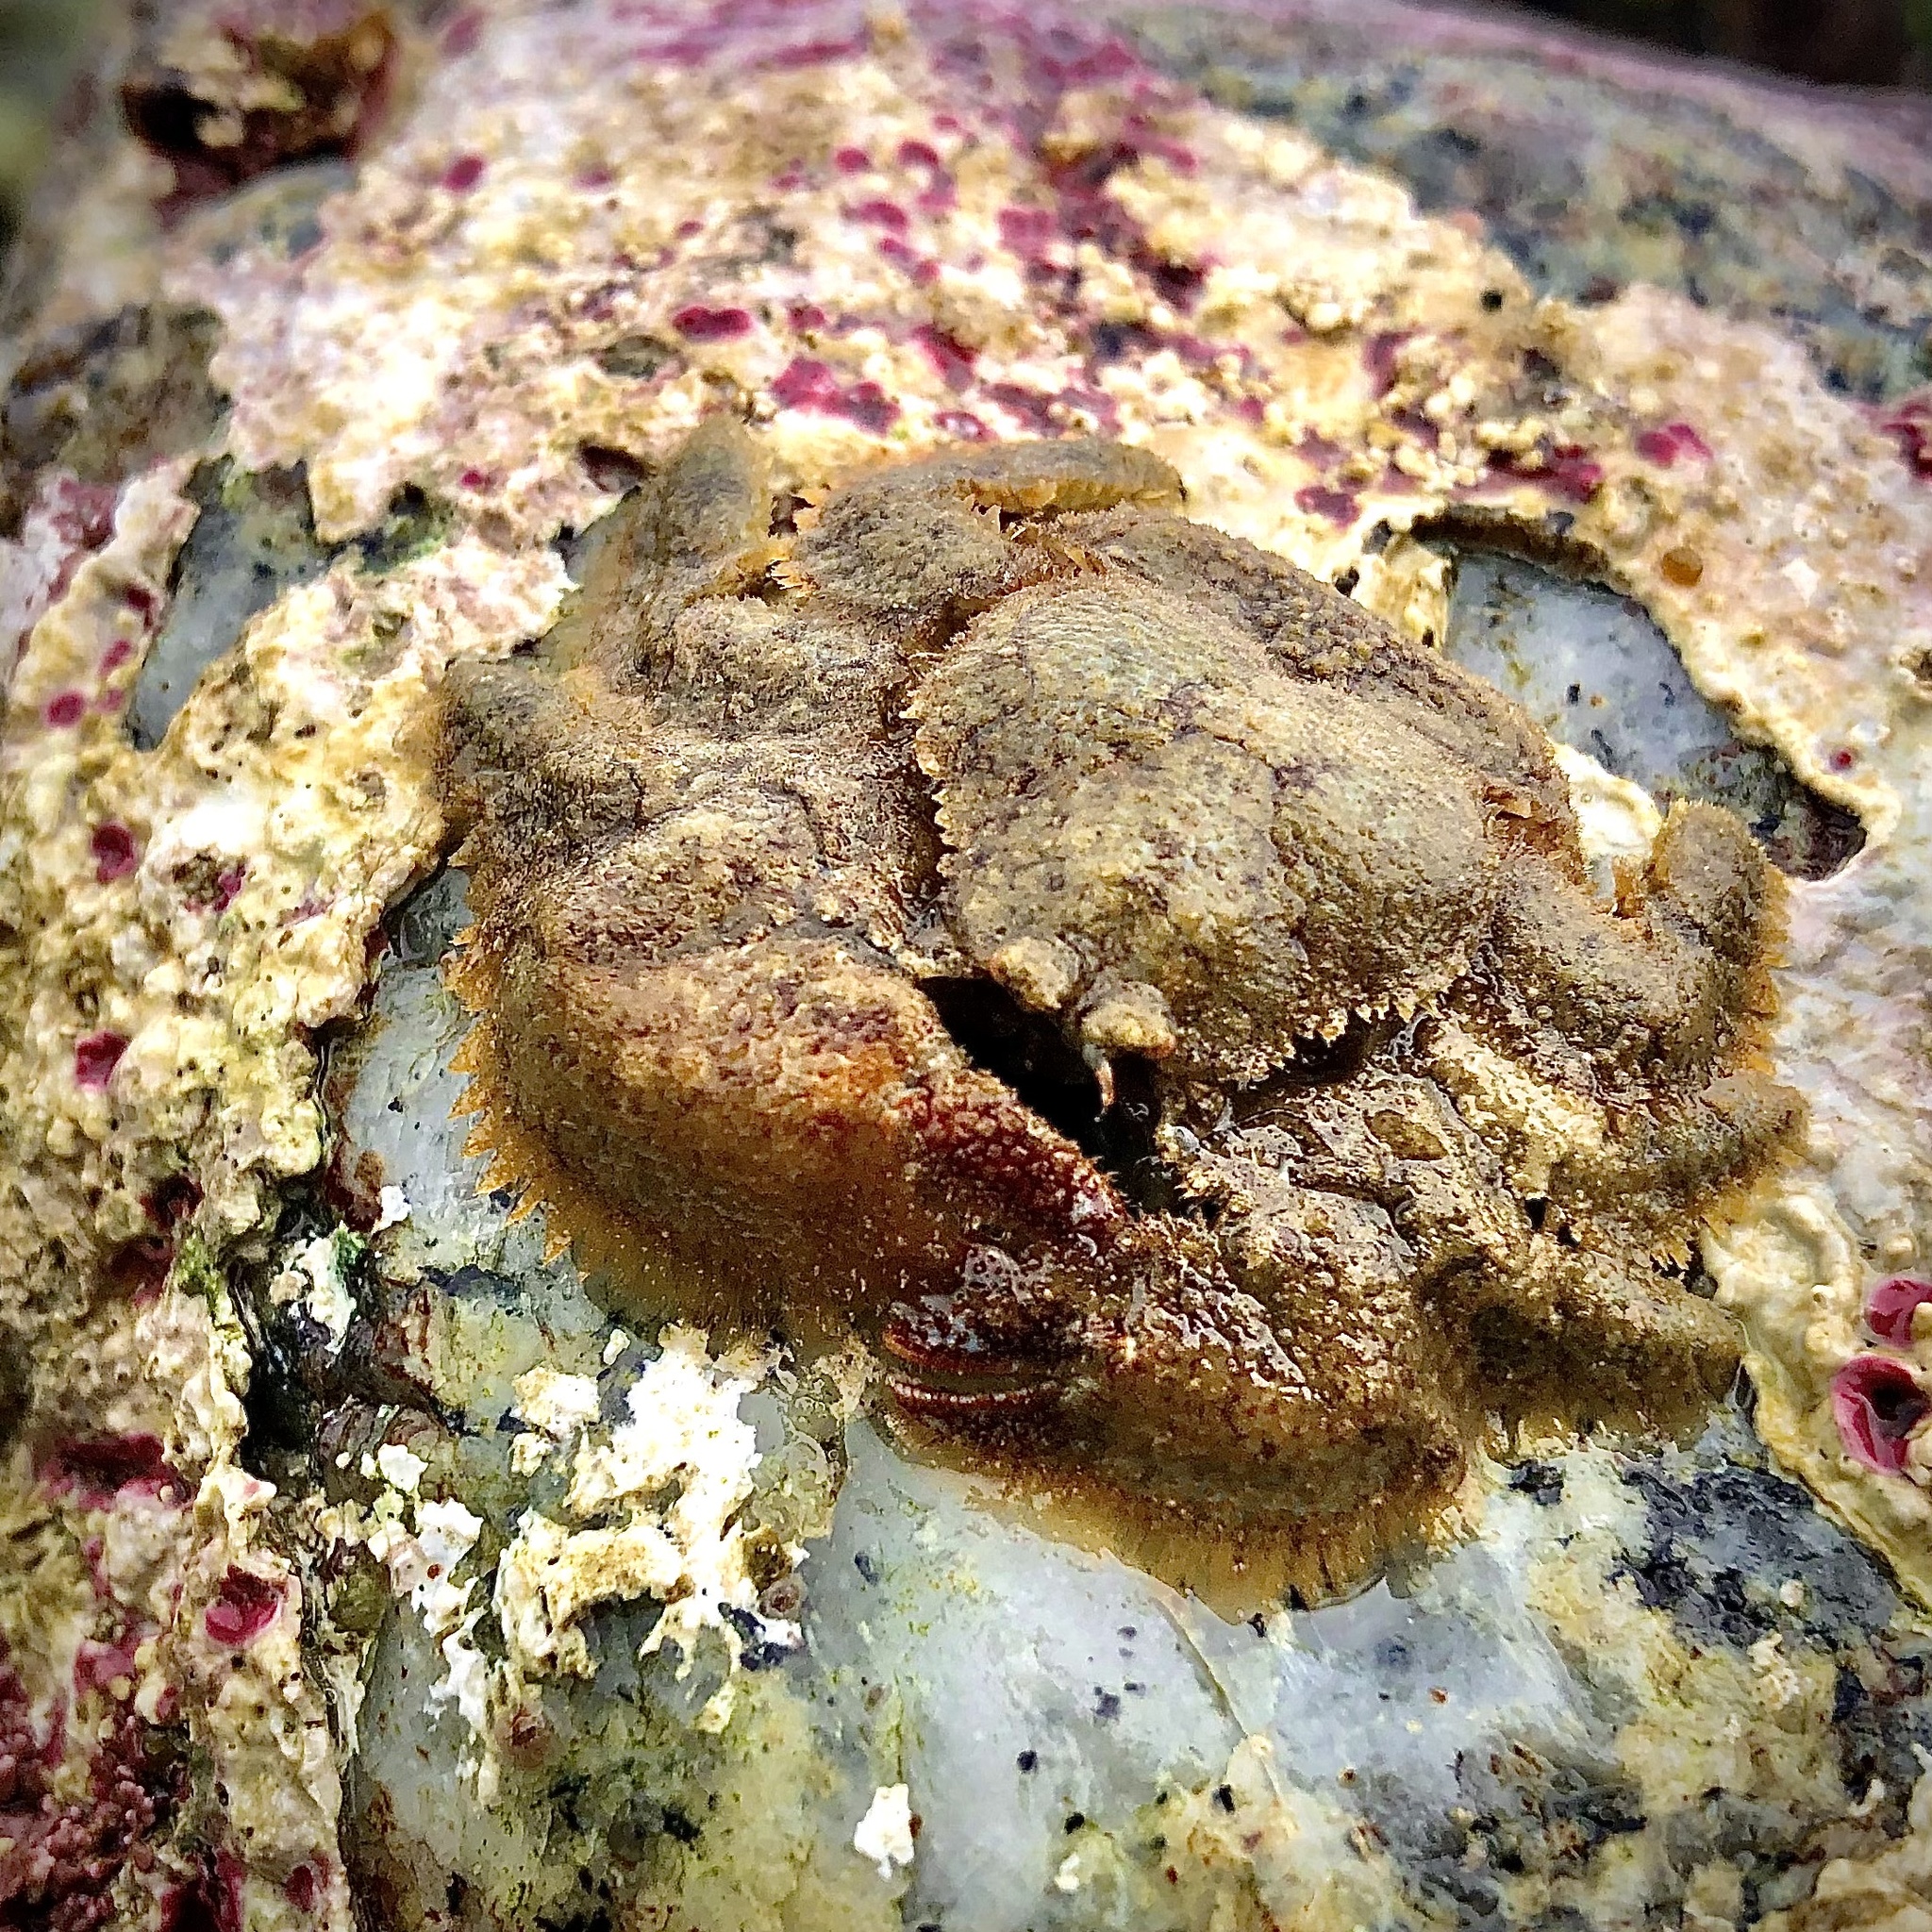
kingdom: Animalia
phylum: Arthropoda
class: Malacostraca
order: Decapoda
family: Hapalogastridae
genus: Hapalogaster
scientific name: Hapalogaster cavicauda
